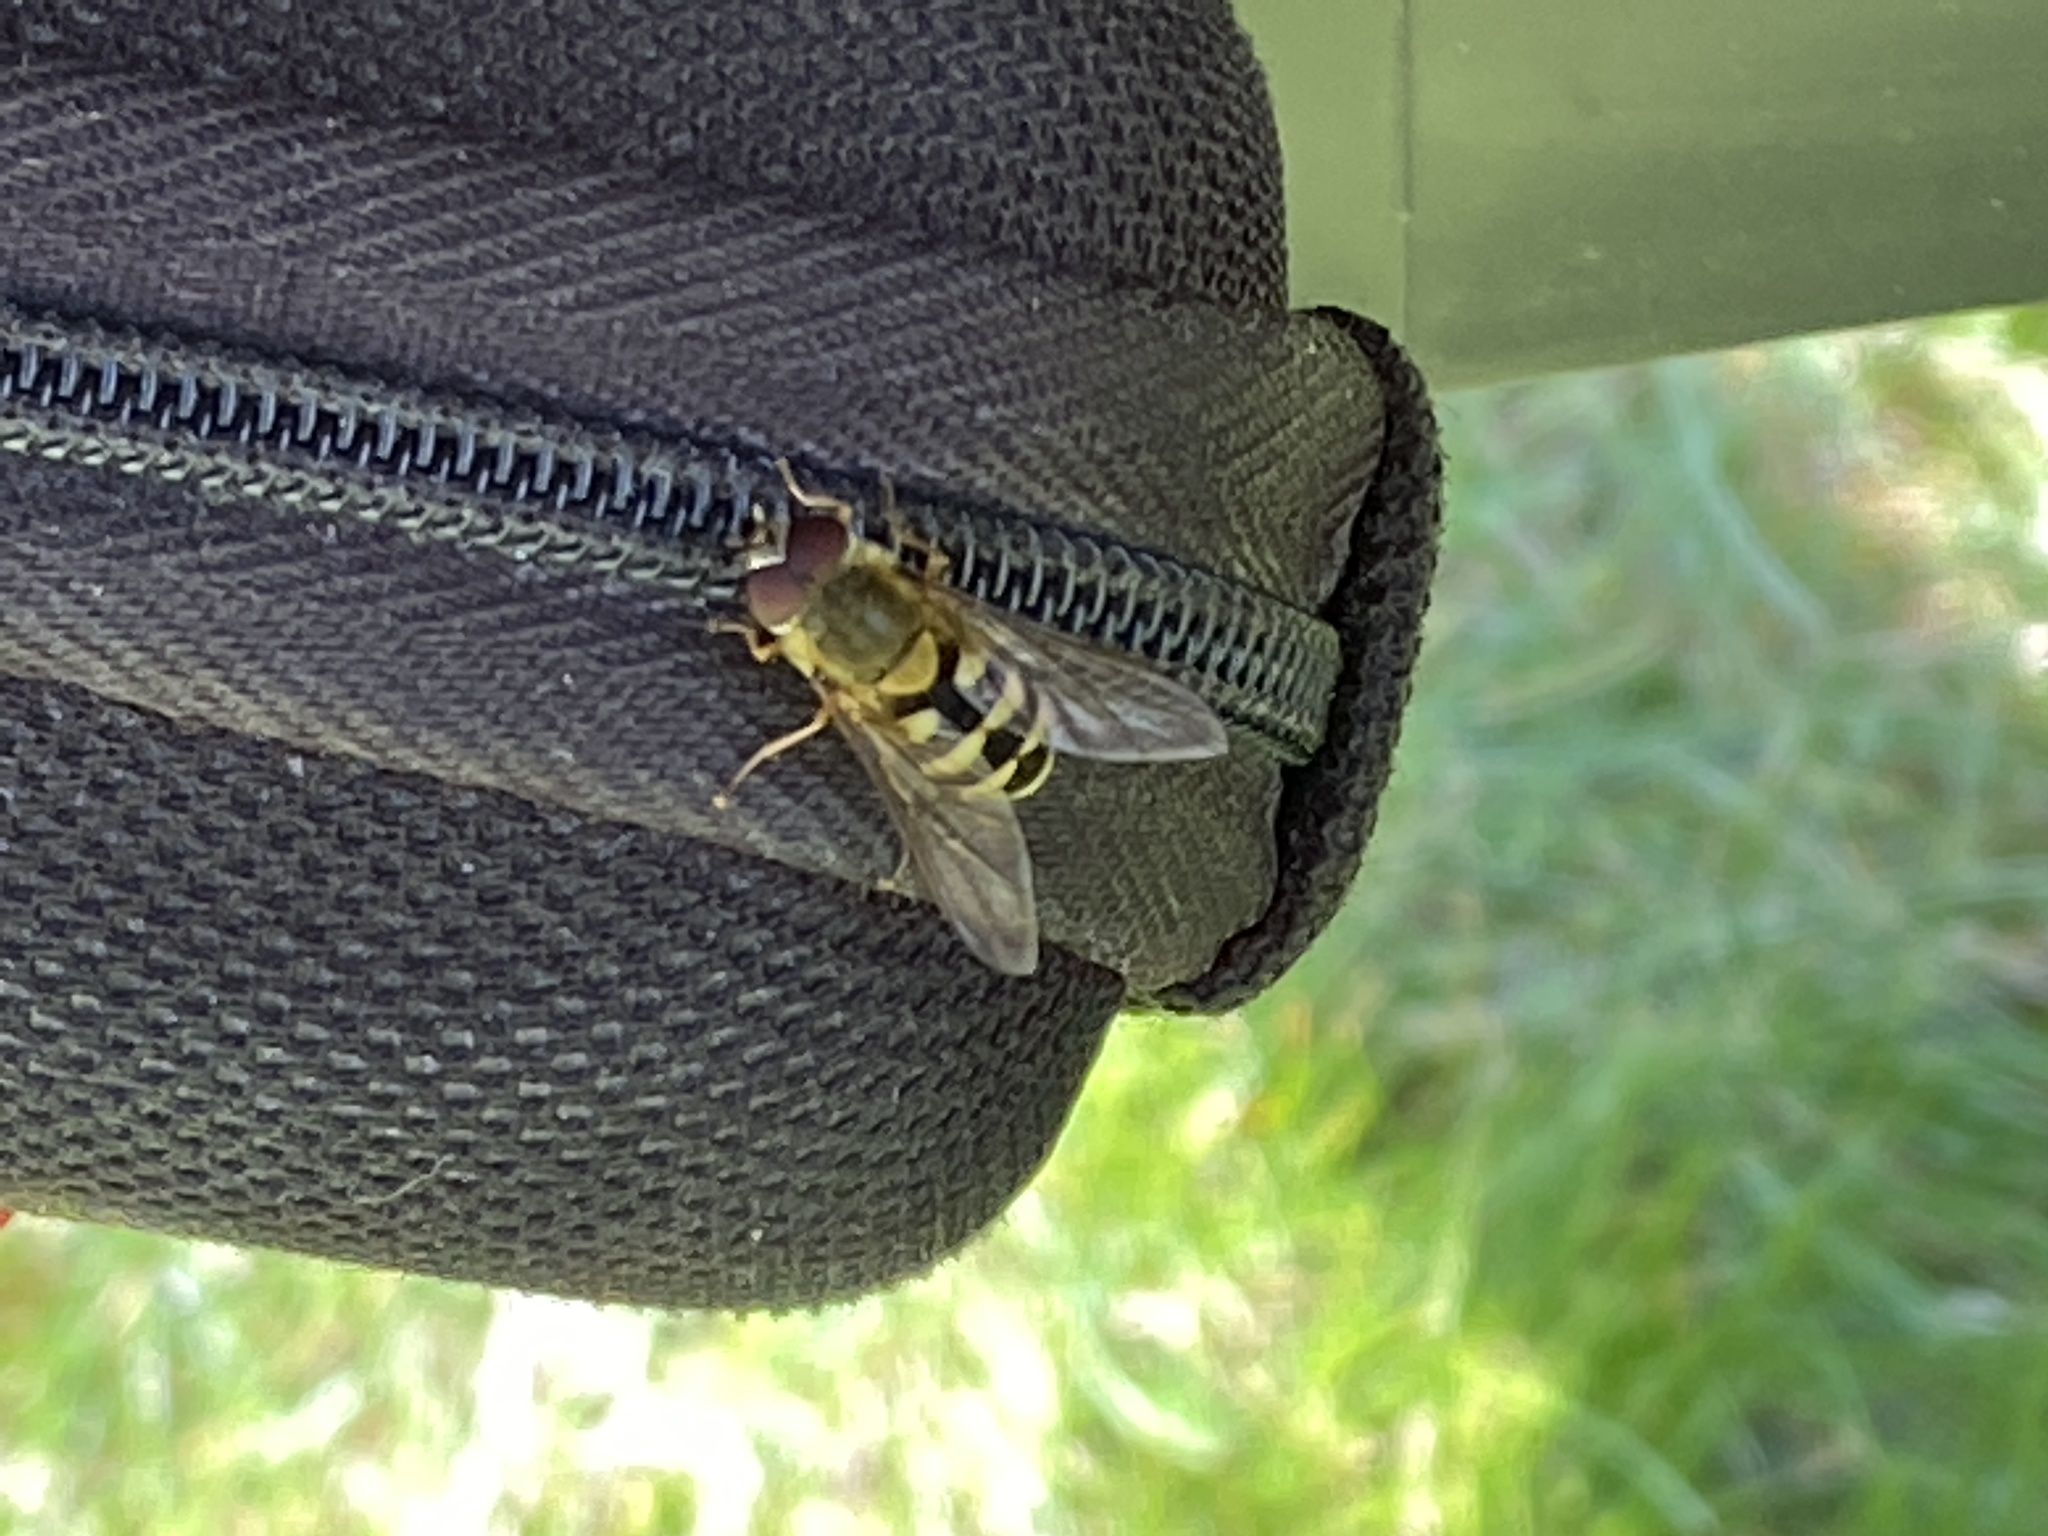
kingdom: Animalia
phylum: Arthropoda
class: Insecta
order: Diptera
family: Syrphidae
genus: Syrphus
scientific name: Syrphus vitripennis
